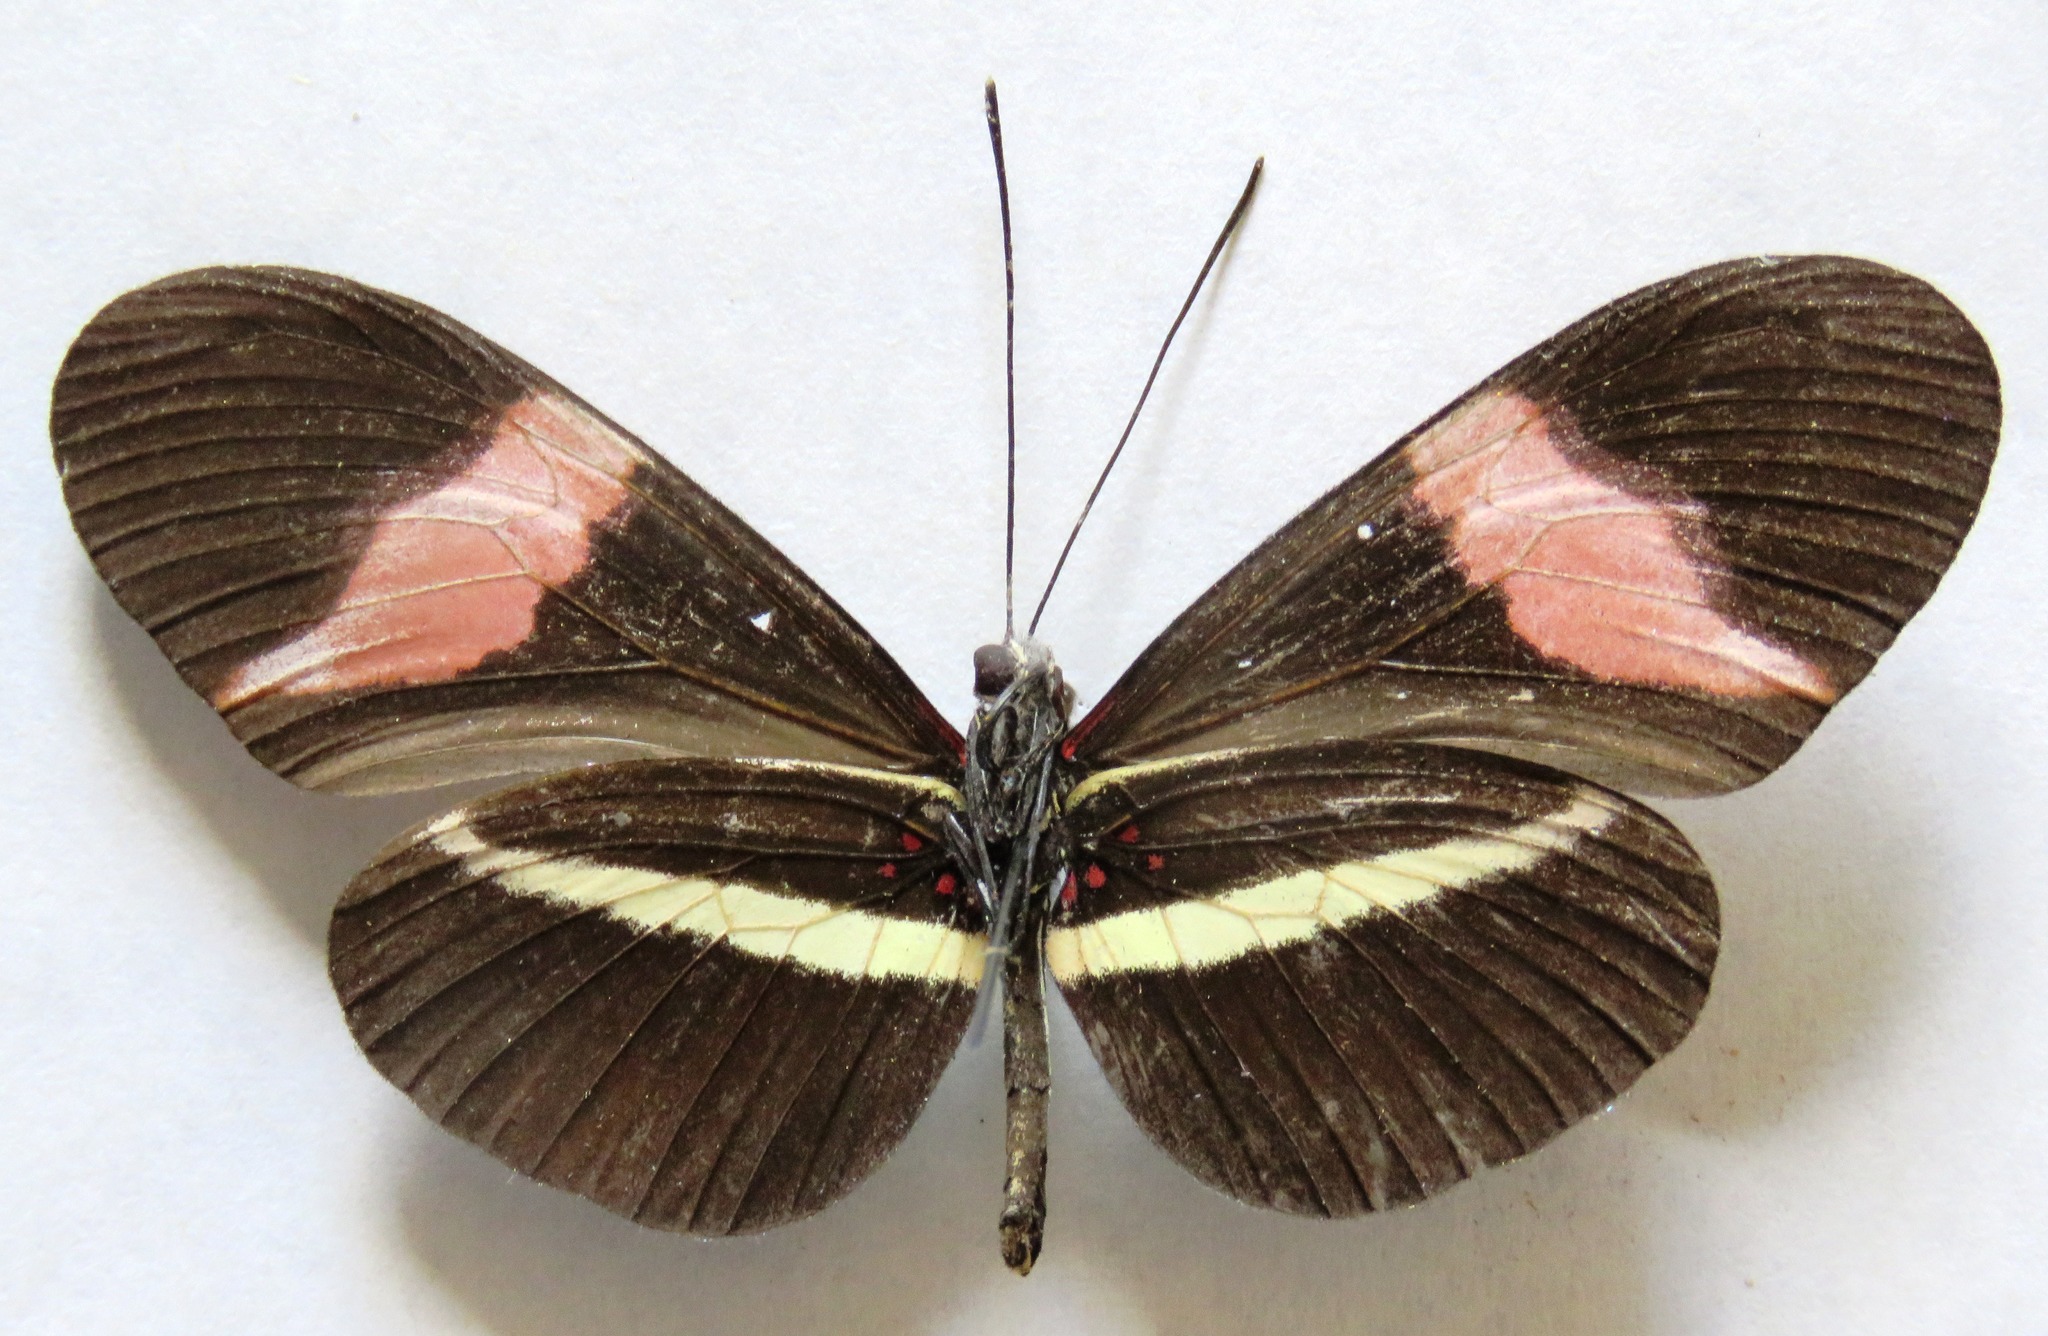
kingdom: Animalia
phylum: Arthropoda
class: Insecta
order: Lepidoptera
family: Nymphalidae
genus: Tirumala
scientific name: Tirumala petiverana
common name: Blue monarch
